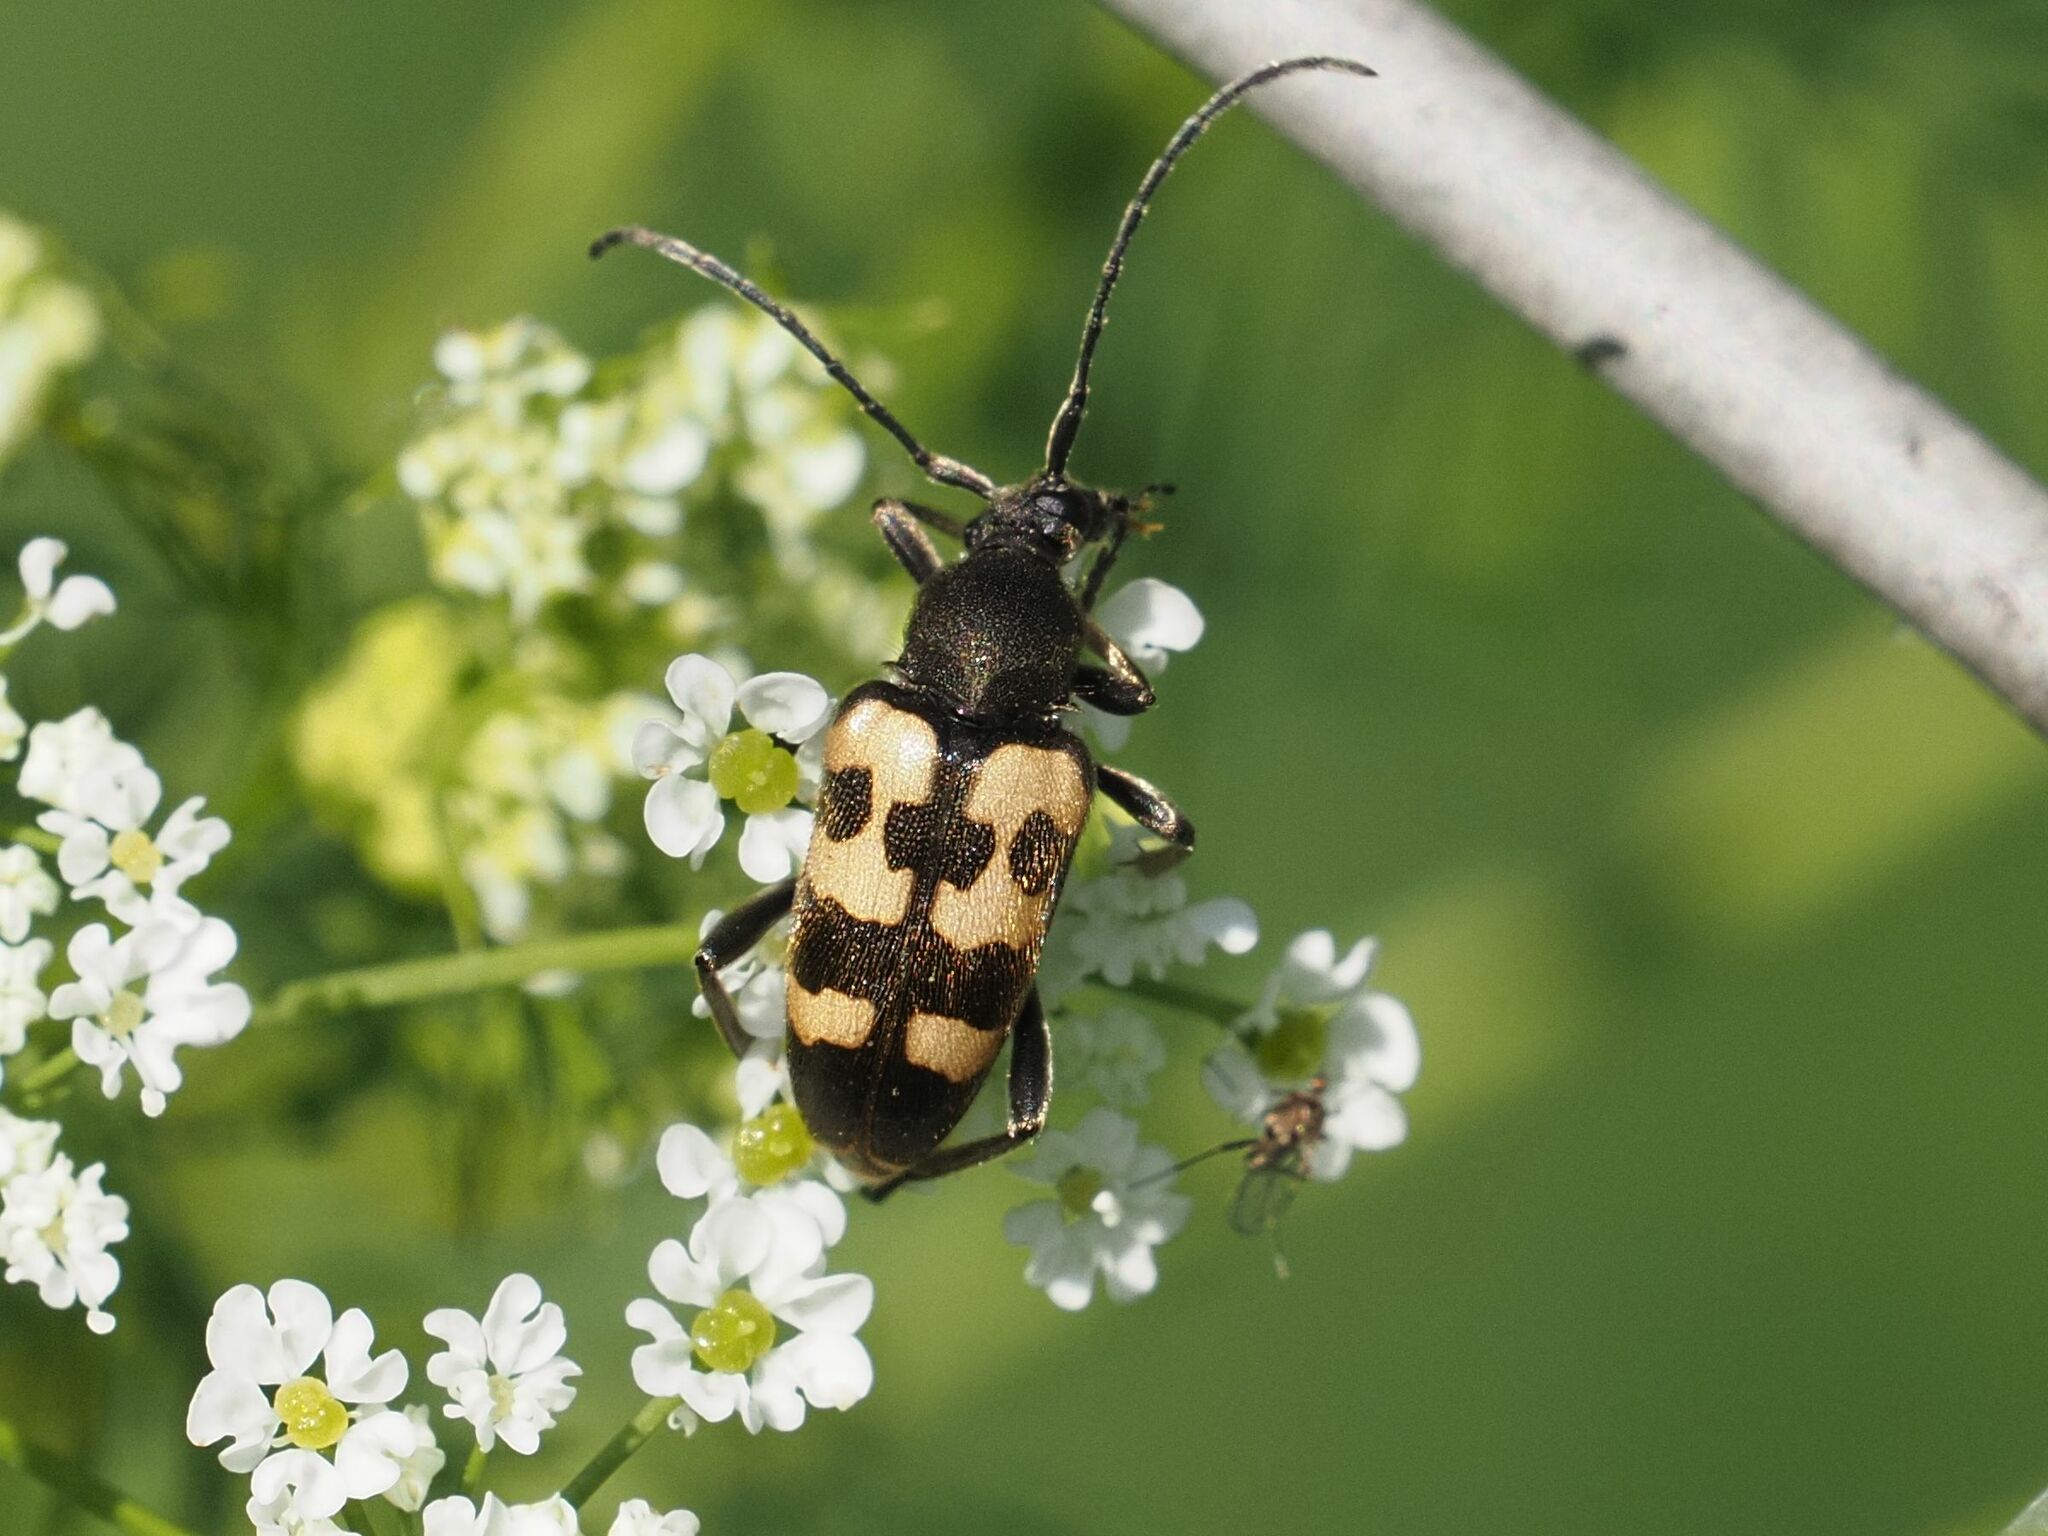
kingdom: Animalia
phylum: Arthropoda
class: Insecta
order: Coleoptera
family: Cerambycidae
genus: Pachytodes
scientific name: Pachytodes
